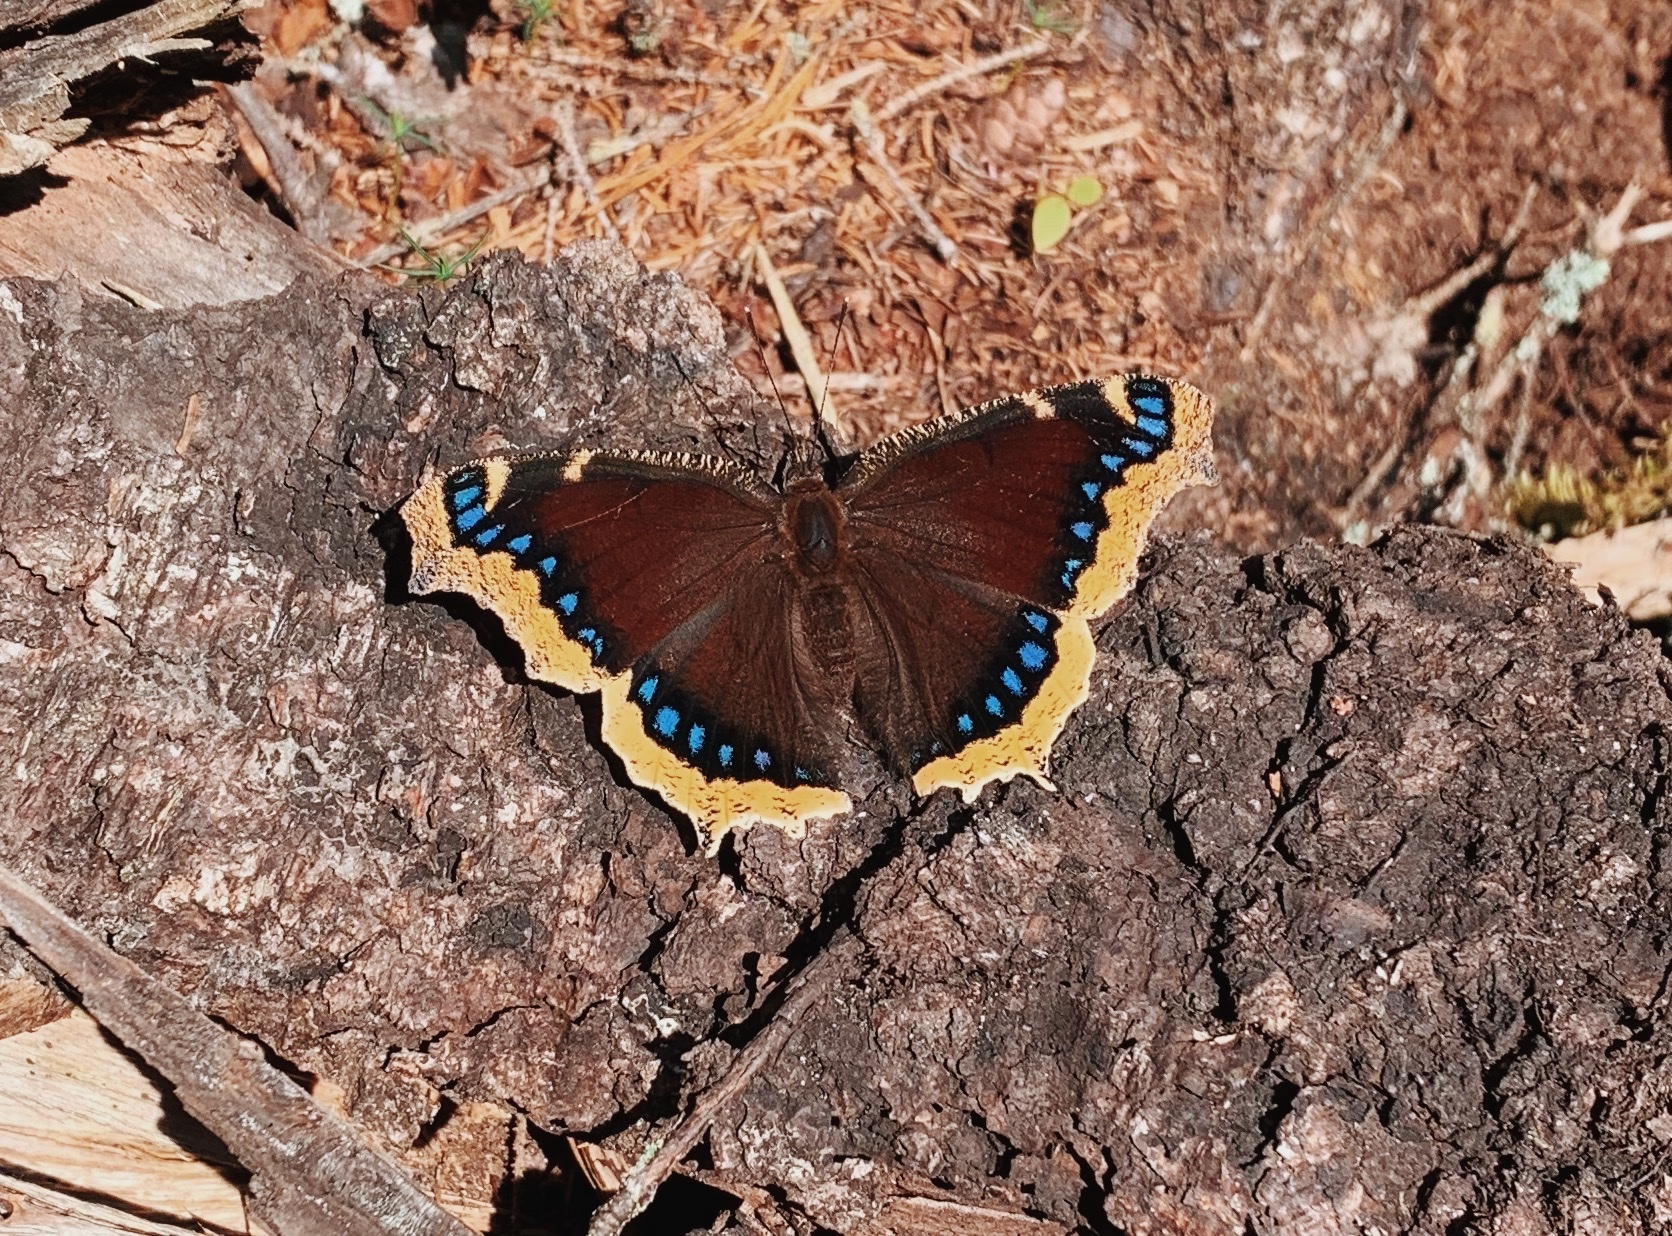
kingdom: Animalia
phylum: Arthropoda
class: Insecta
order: Lepidoptera
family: Nymphalidae
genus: Nymphalis
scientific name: Nymphalis antiopa
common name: Camberwell beauty
